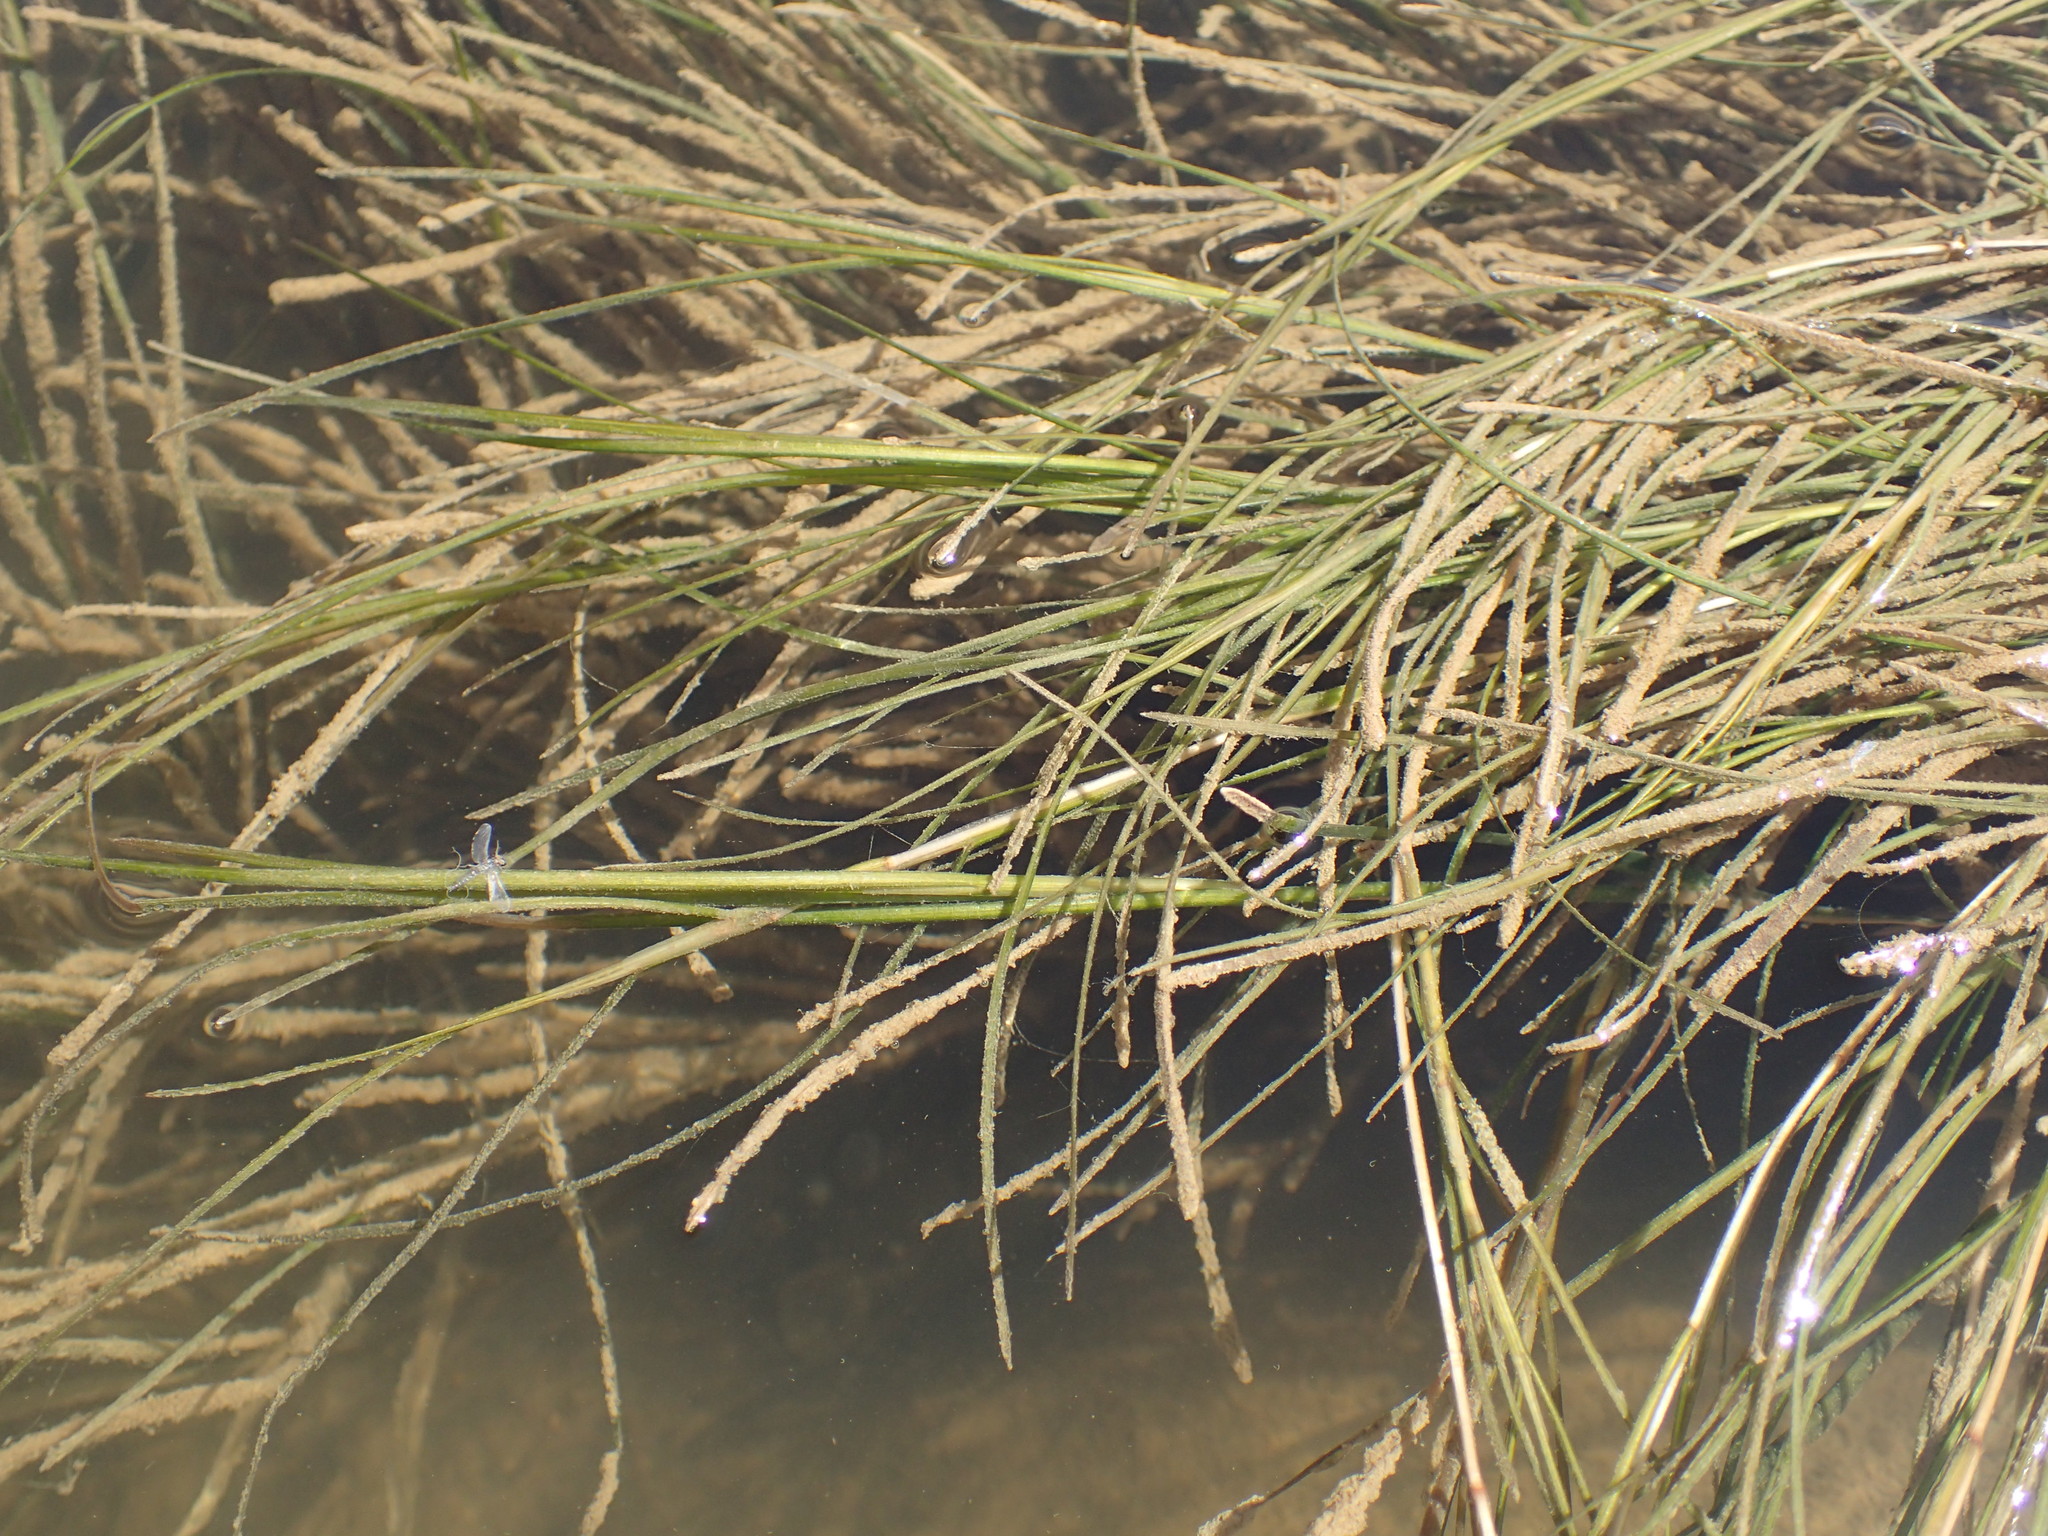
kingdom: Plantae
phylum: Tracheophyta
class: Liliopsida
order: Alismatales
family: Potamogetonaceae
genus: Stuckenia
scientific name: Stuckenia pectinata
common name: Sago pondweed
